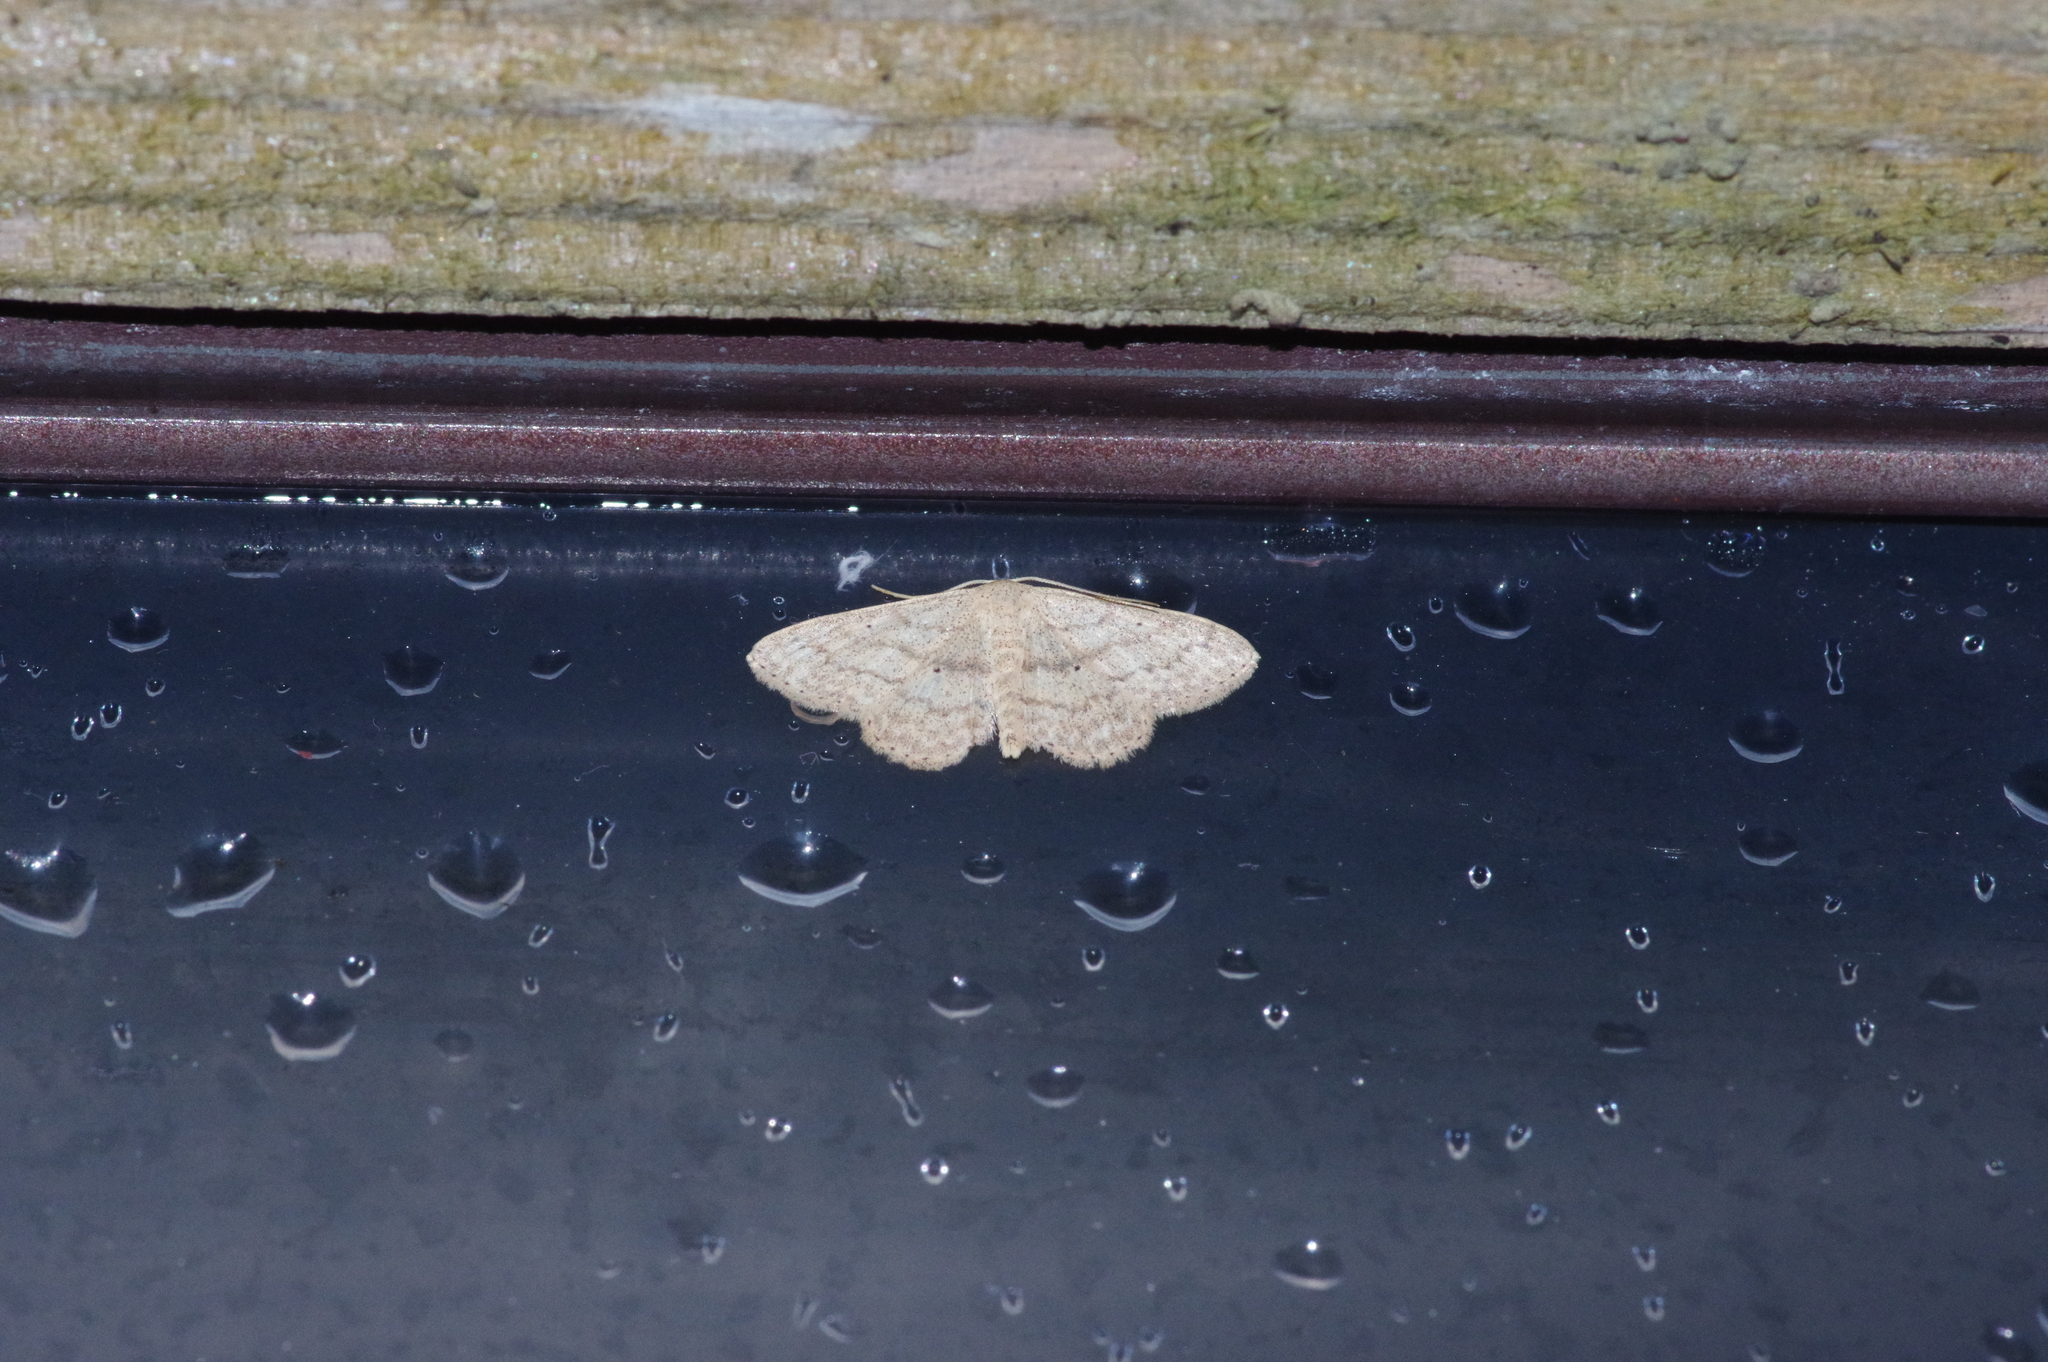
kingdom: Animalia
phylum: Arthropoda
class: Insecta
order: Lepidoptera
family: Geometridae
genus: Scopula
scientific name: Scopula personata
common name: Cankerworm
